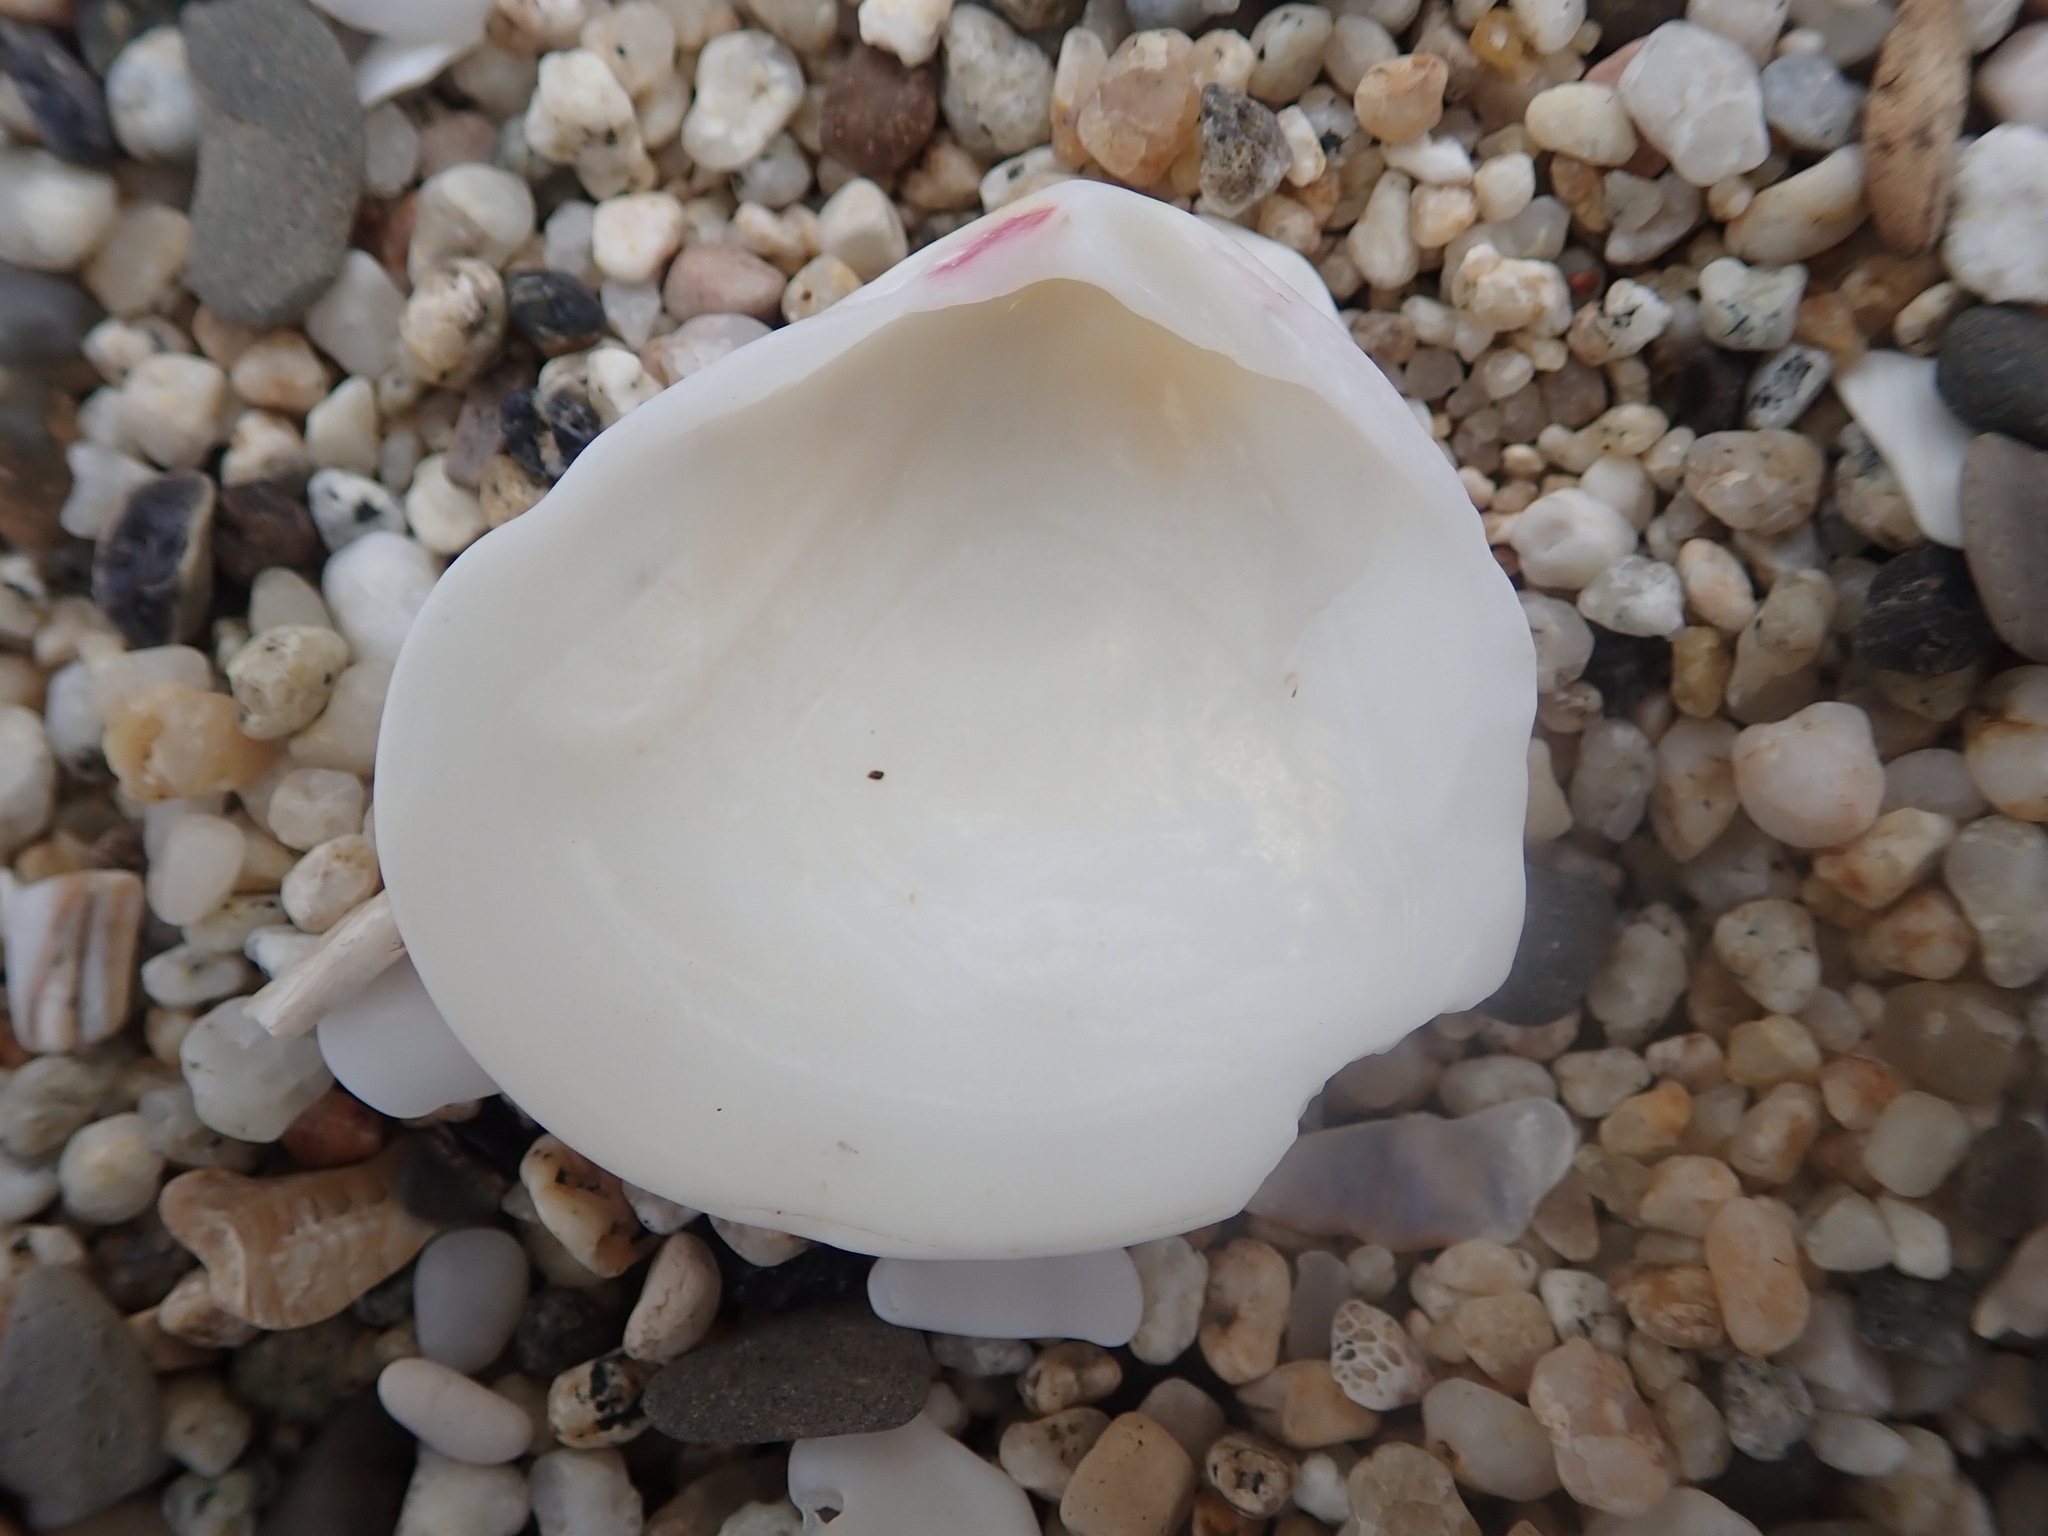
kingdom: Animalia
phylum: Mollusca
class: Bivalvia
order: Cardiida
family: Semelidae
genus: Semele
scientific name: Semele rubropicta
